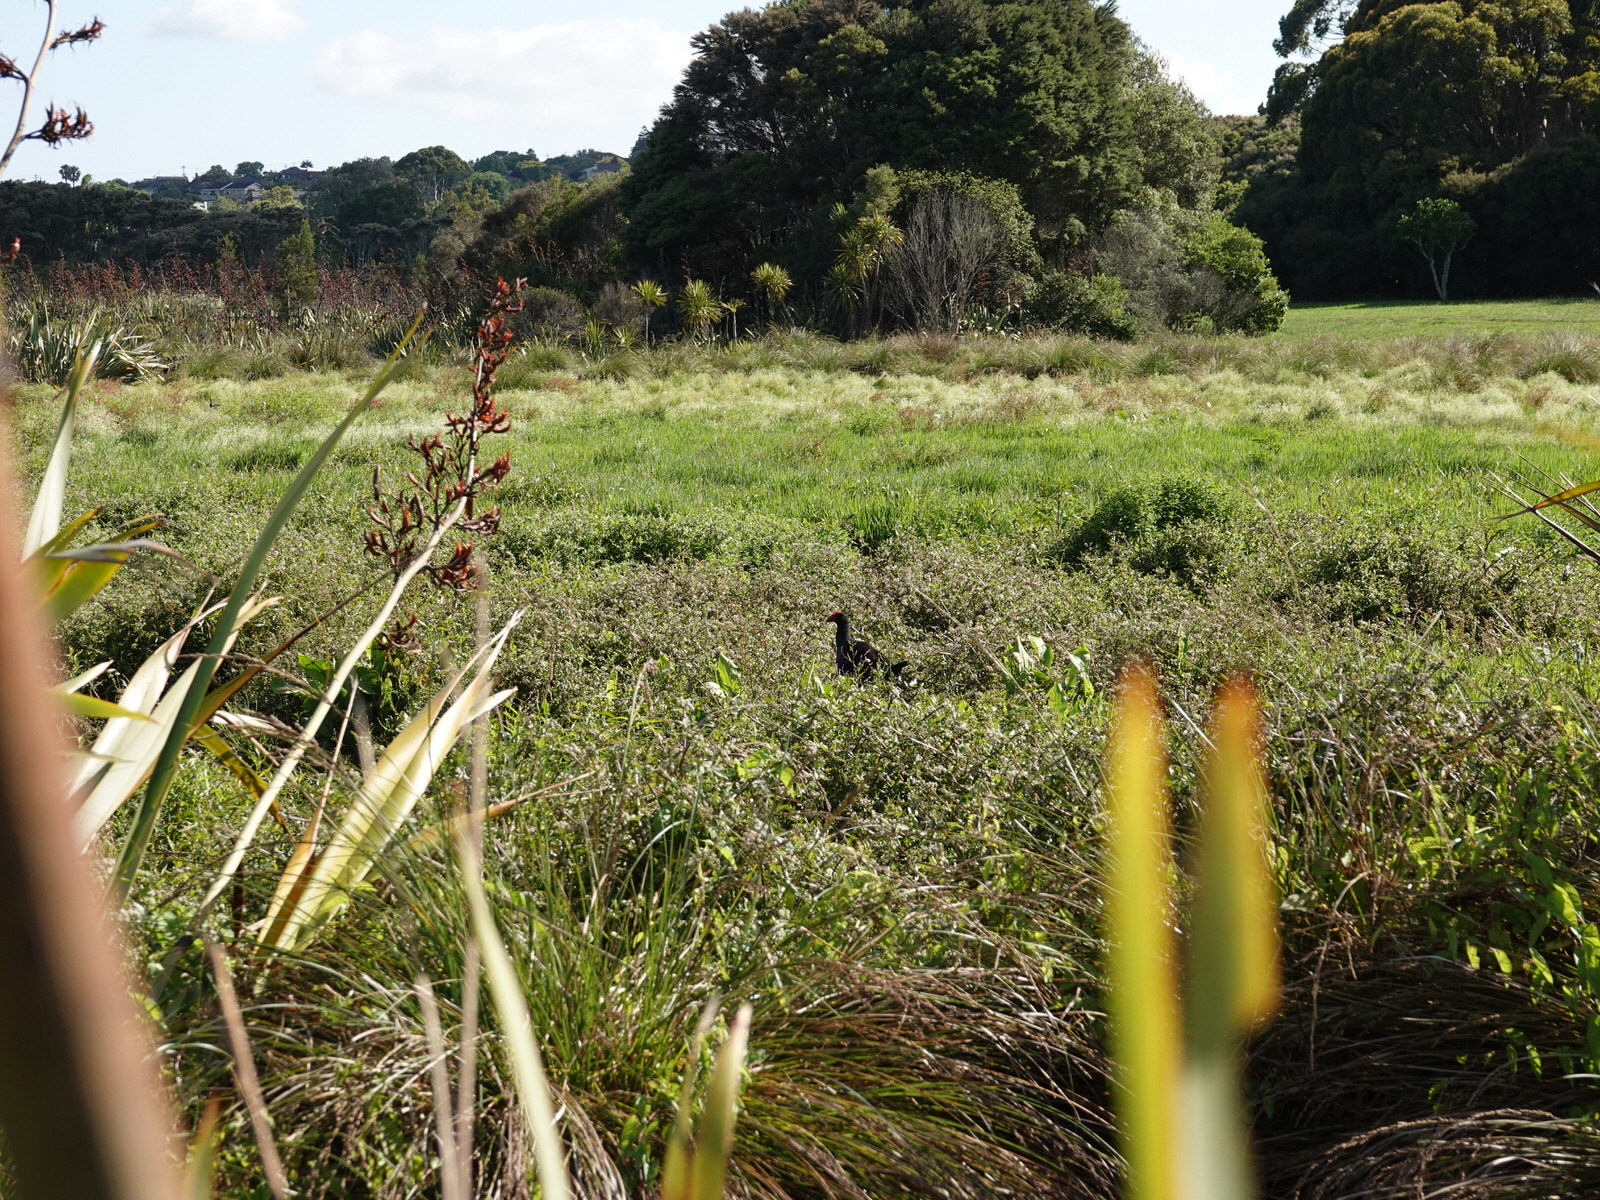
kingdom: Animalia
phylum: Chordata
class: Aves
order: Gruiformes
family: Rallidae
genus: Porphyrio
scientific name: Porphyrio melanotus
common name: Australasian swamphen
